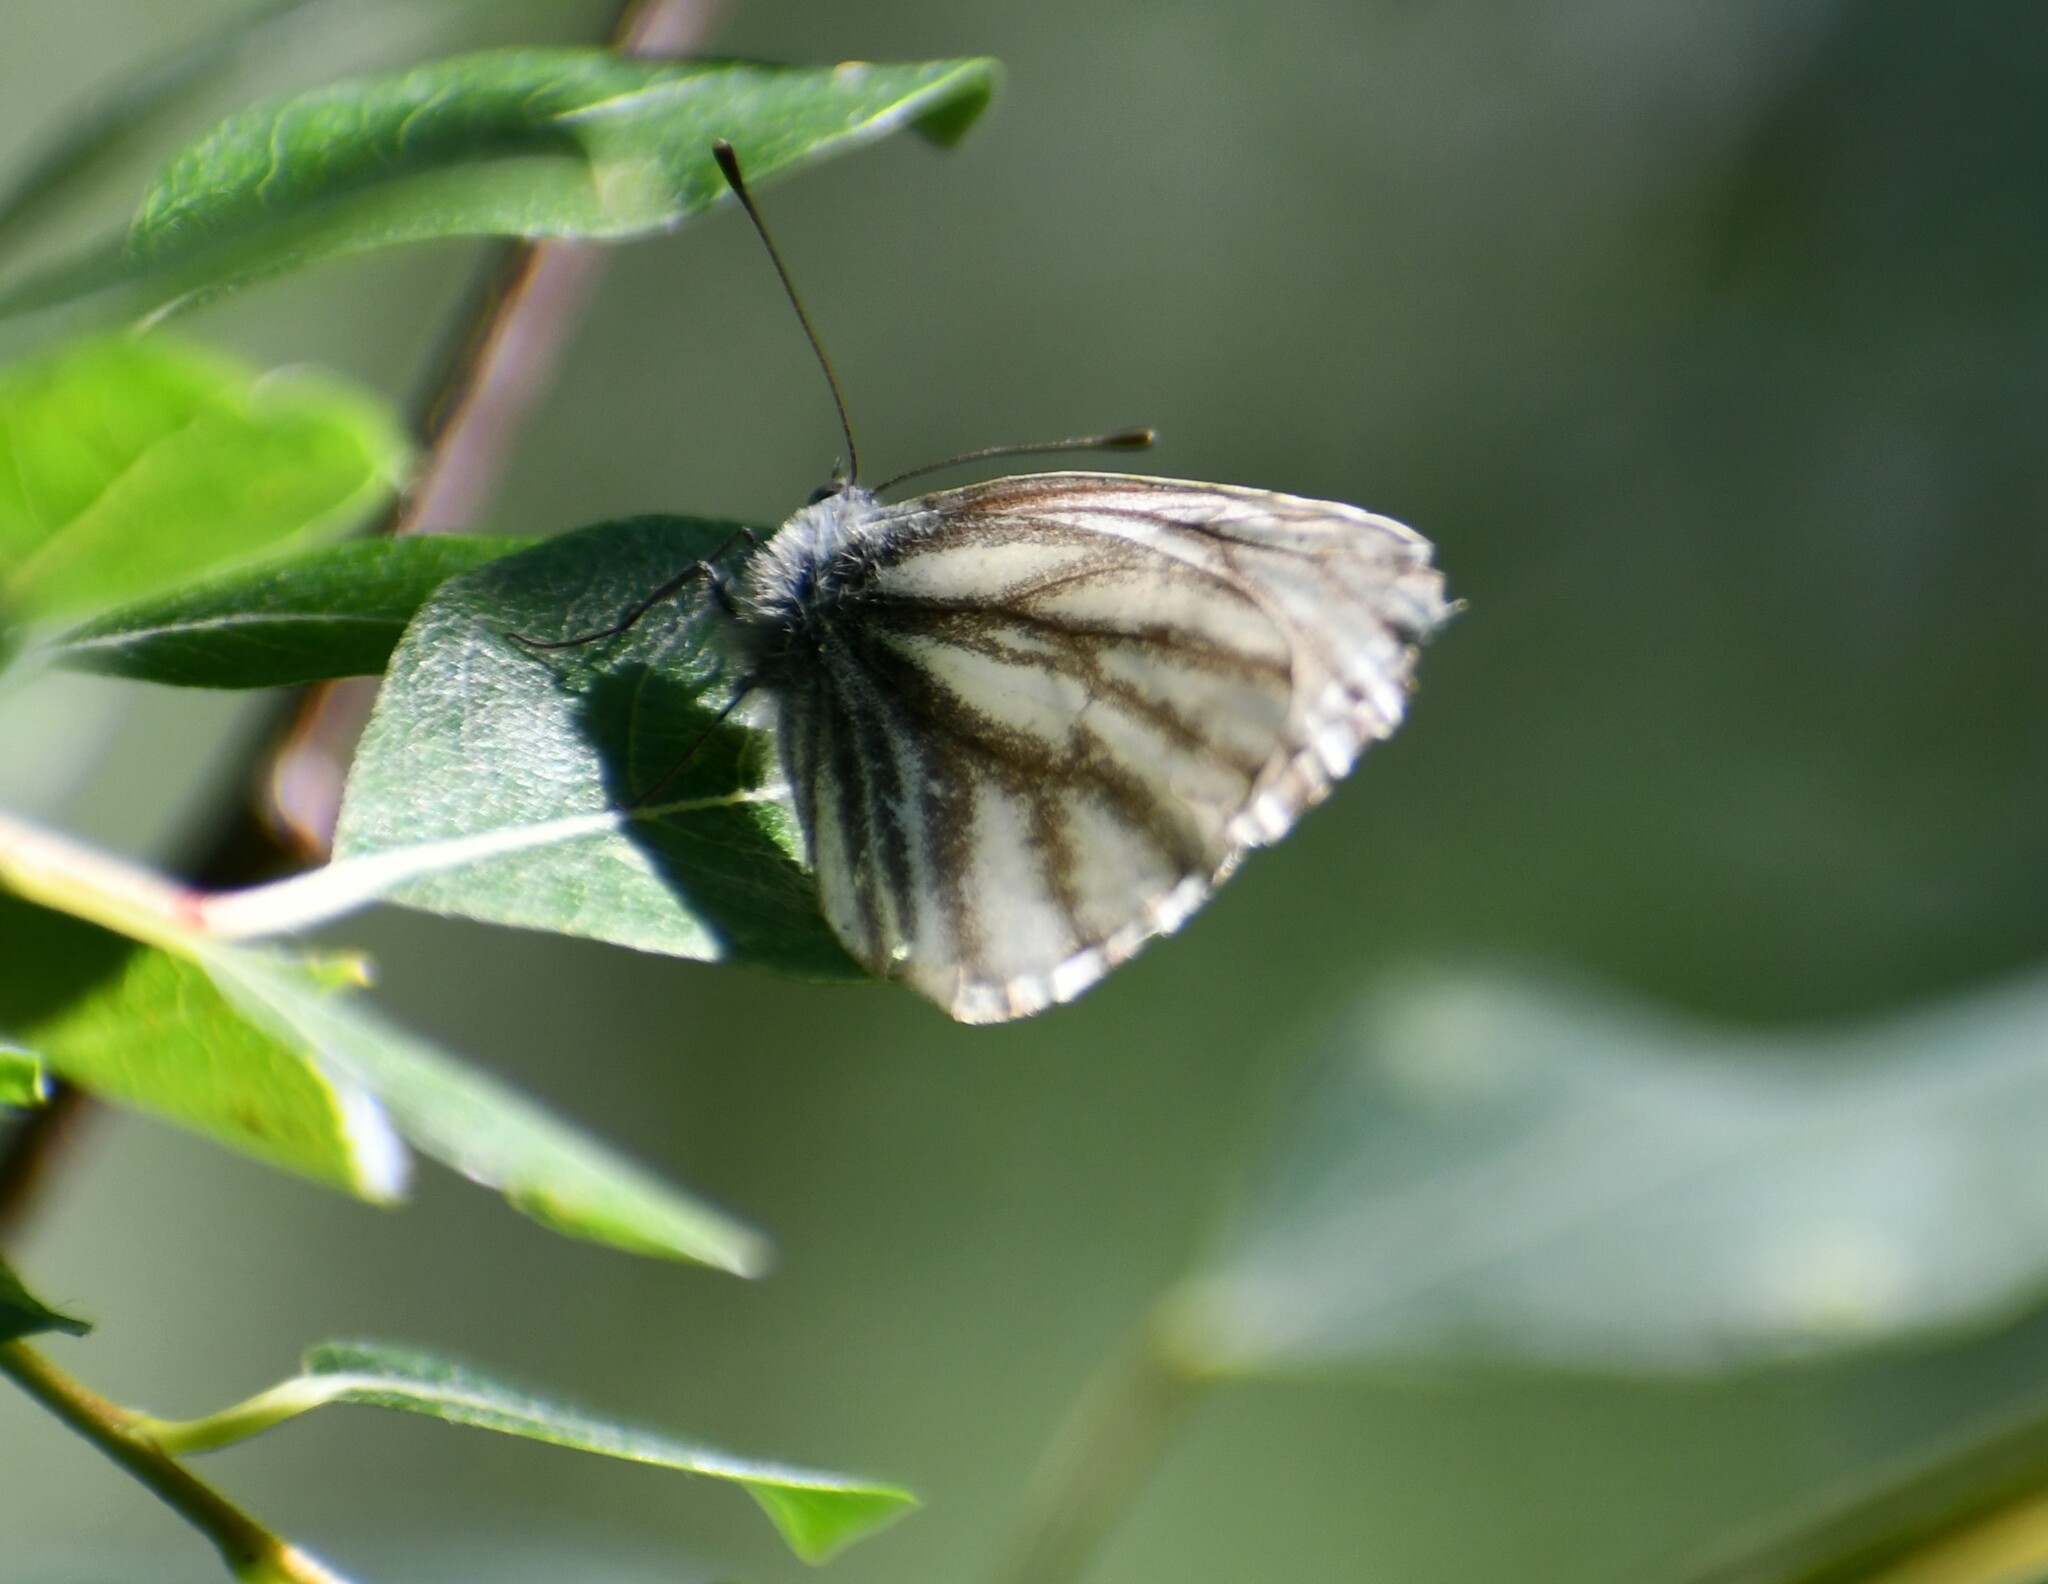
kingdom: Animalia
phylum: Arthropoda
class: Insecta
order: Lepidoptera
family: Pieridae
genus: Pieris
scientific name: Pieris angelika
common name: Arctic white
